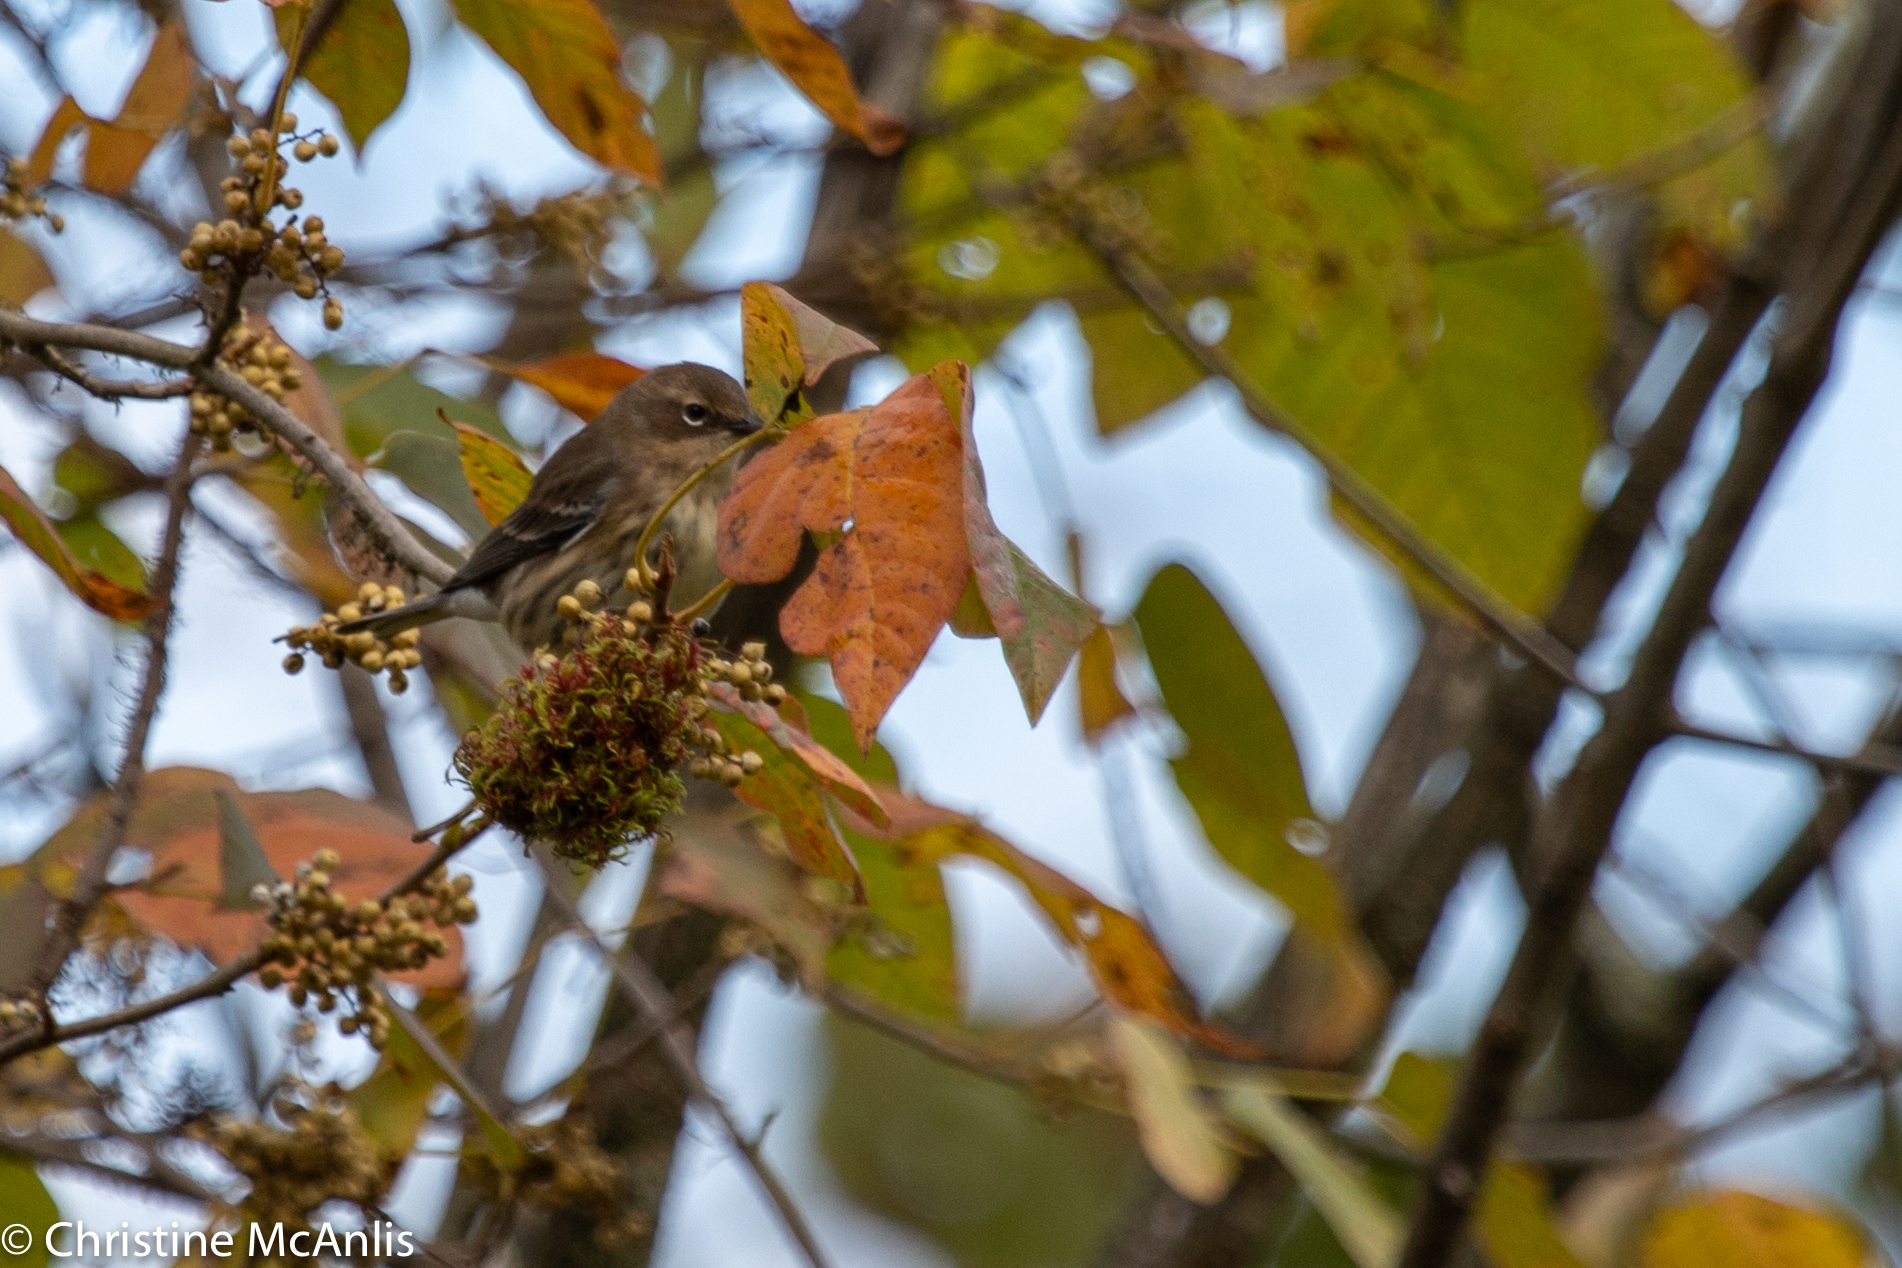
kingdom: Animalia
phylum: Chordata
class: Aves
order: Passeriformes
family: Parulidae
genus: Setophaga
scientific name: Setophaga coronata
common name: Myrtle warbler
